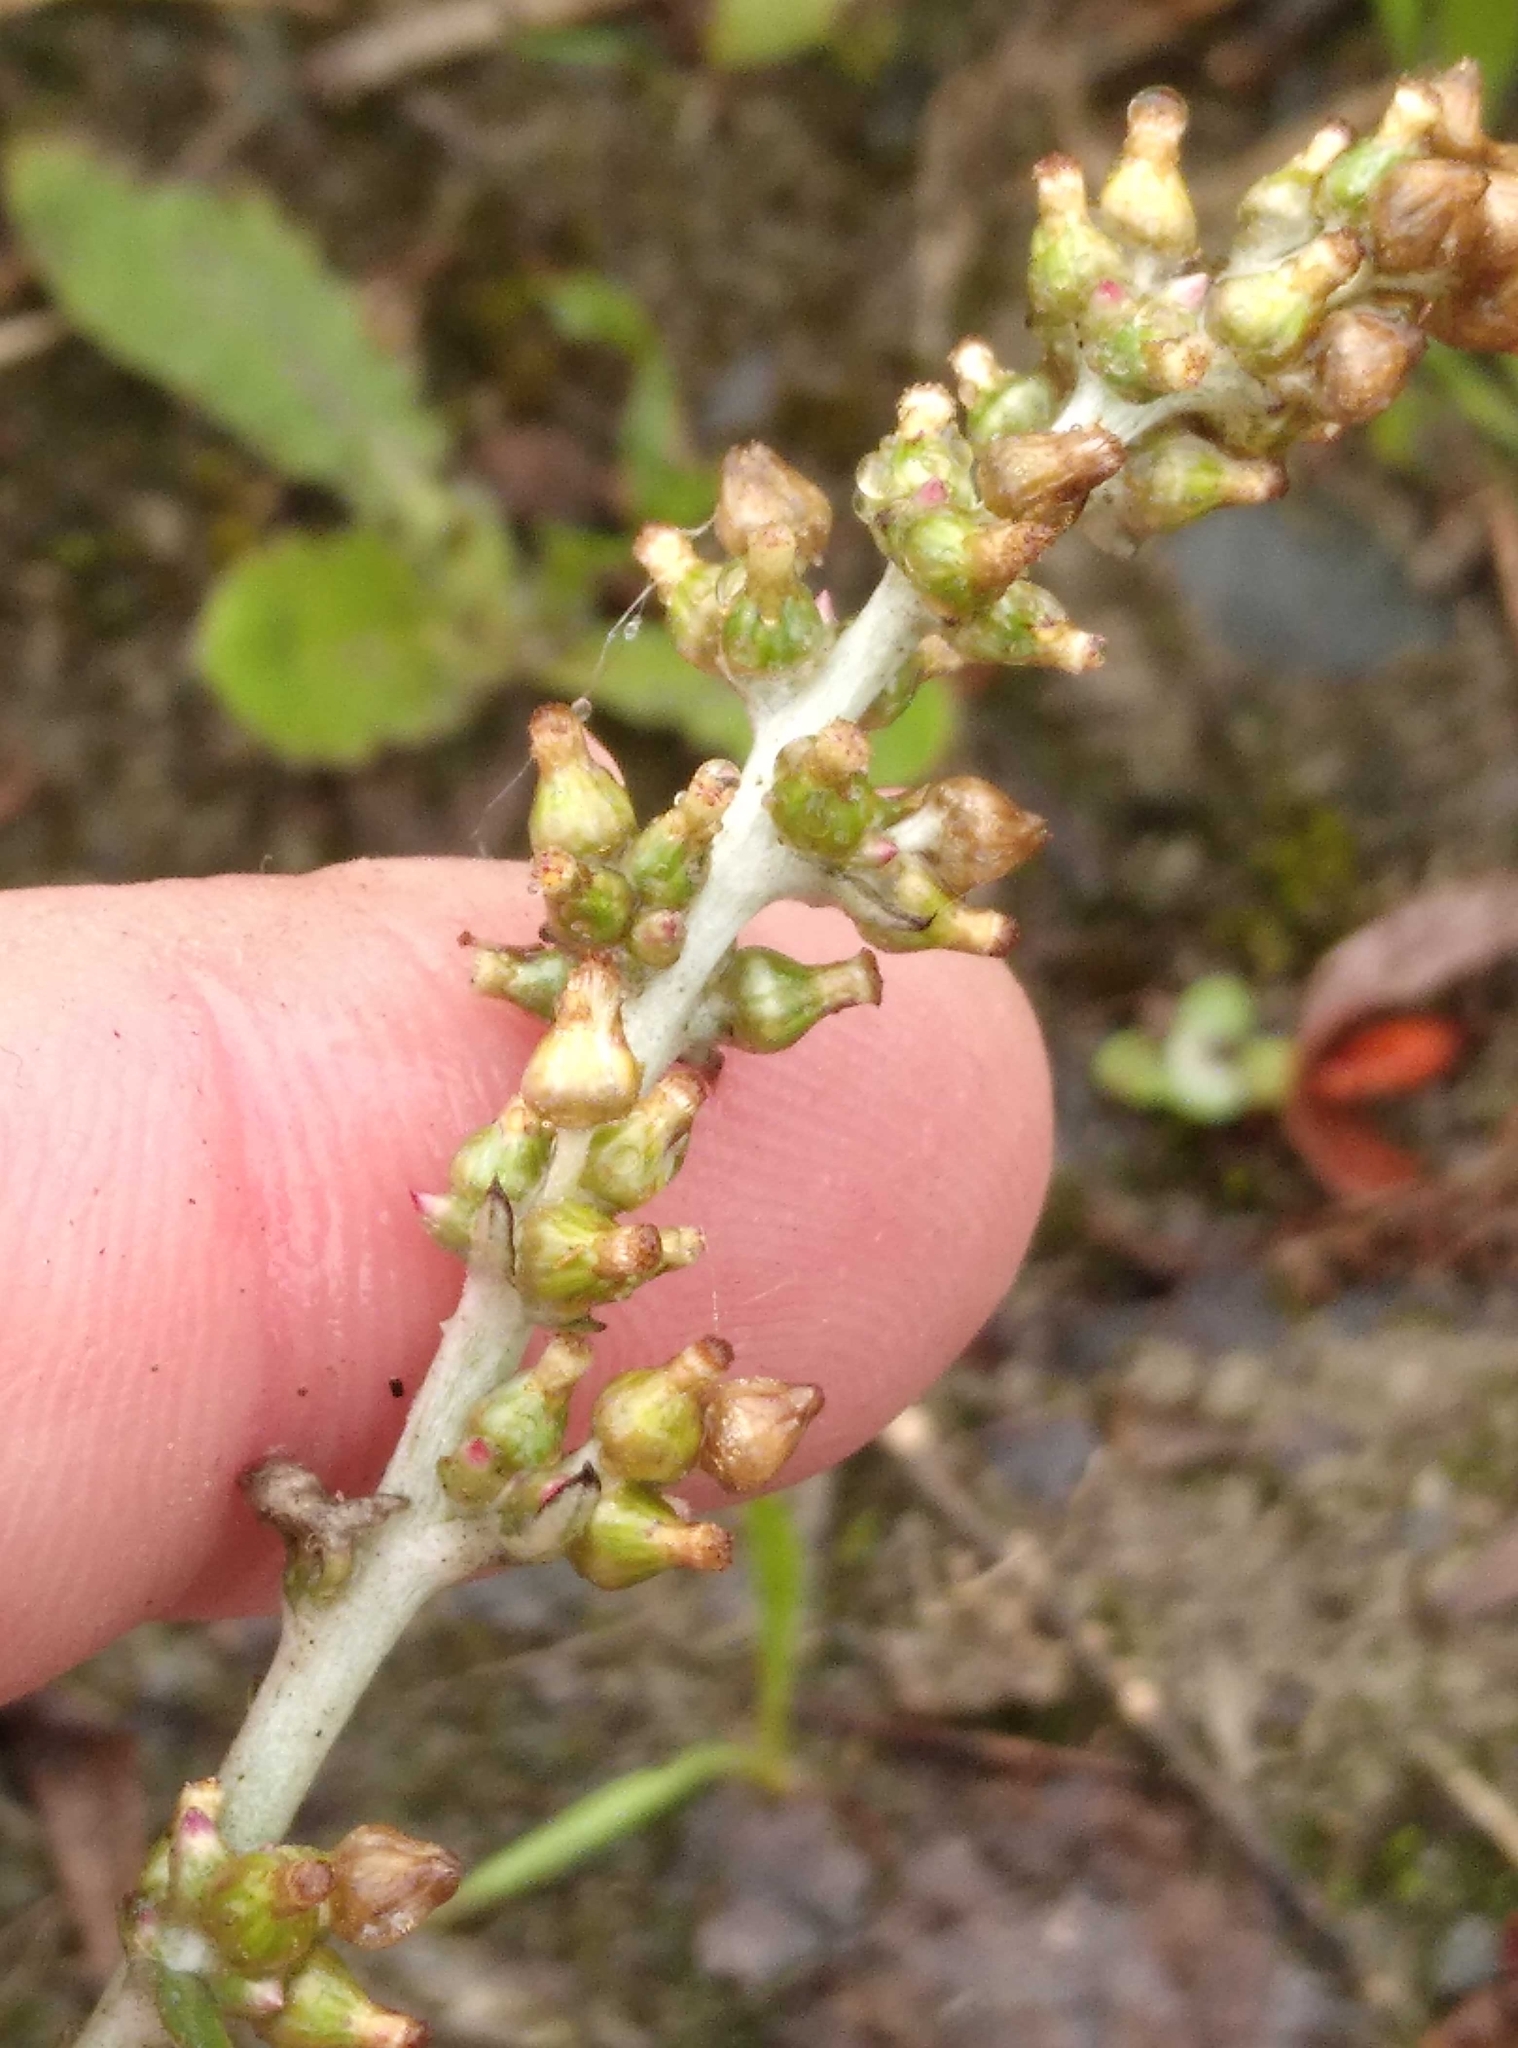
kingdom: Plantae
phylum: Tracheophyta
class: Magnoliopsida
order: Asterales
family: Asteraceae
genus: Gamochaeta
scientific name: Gamochaeta americana
